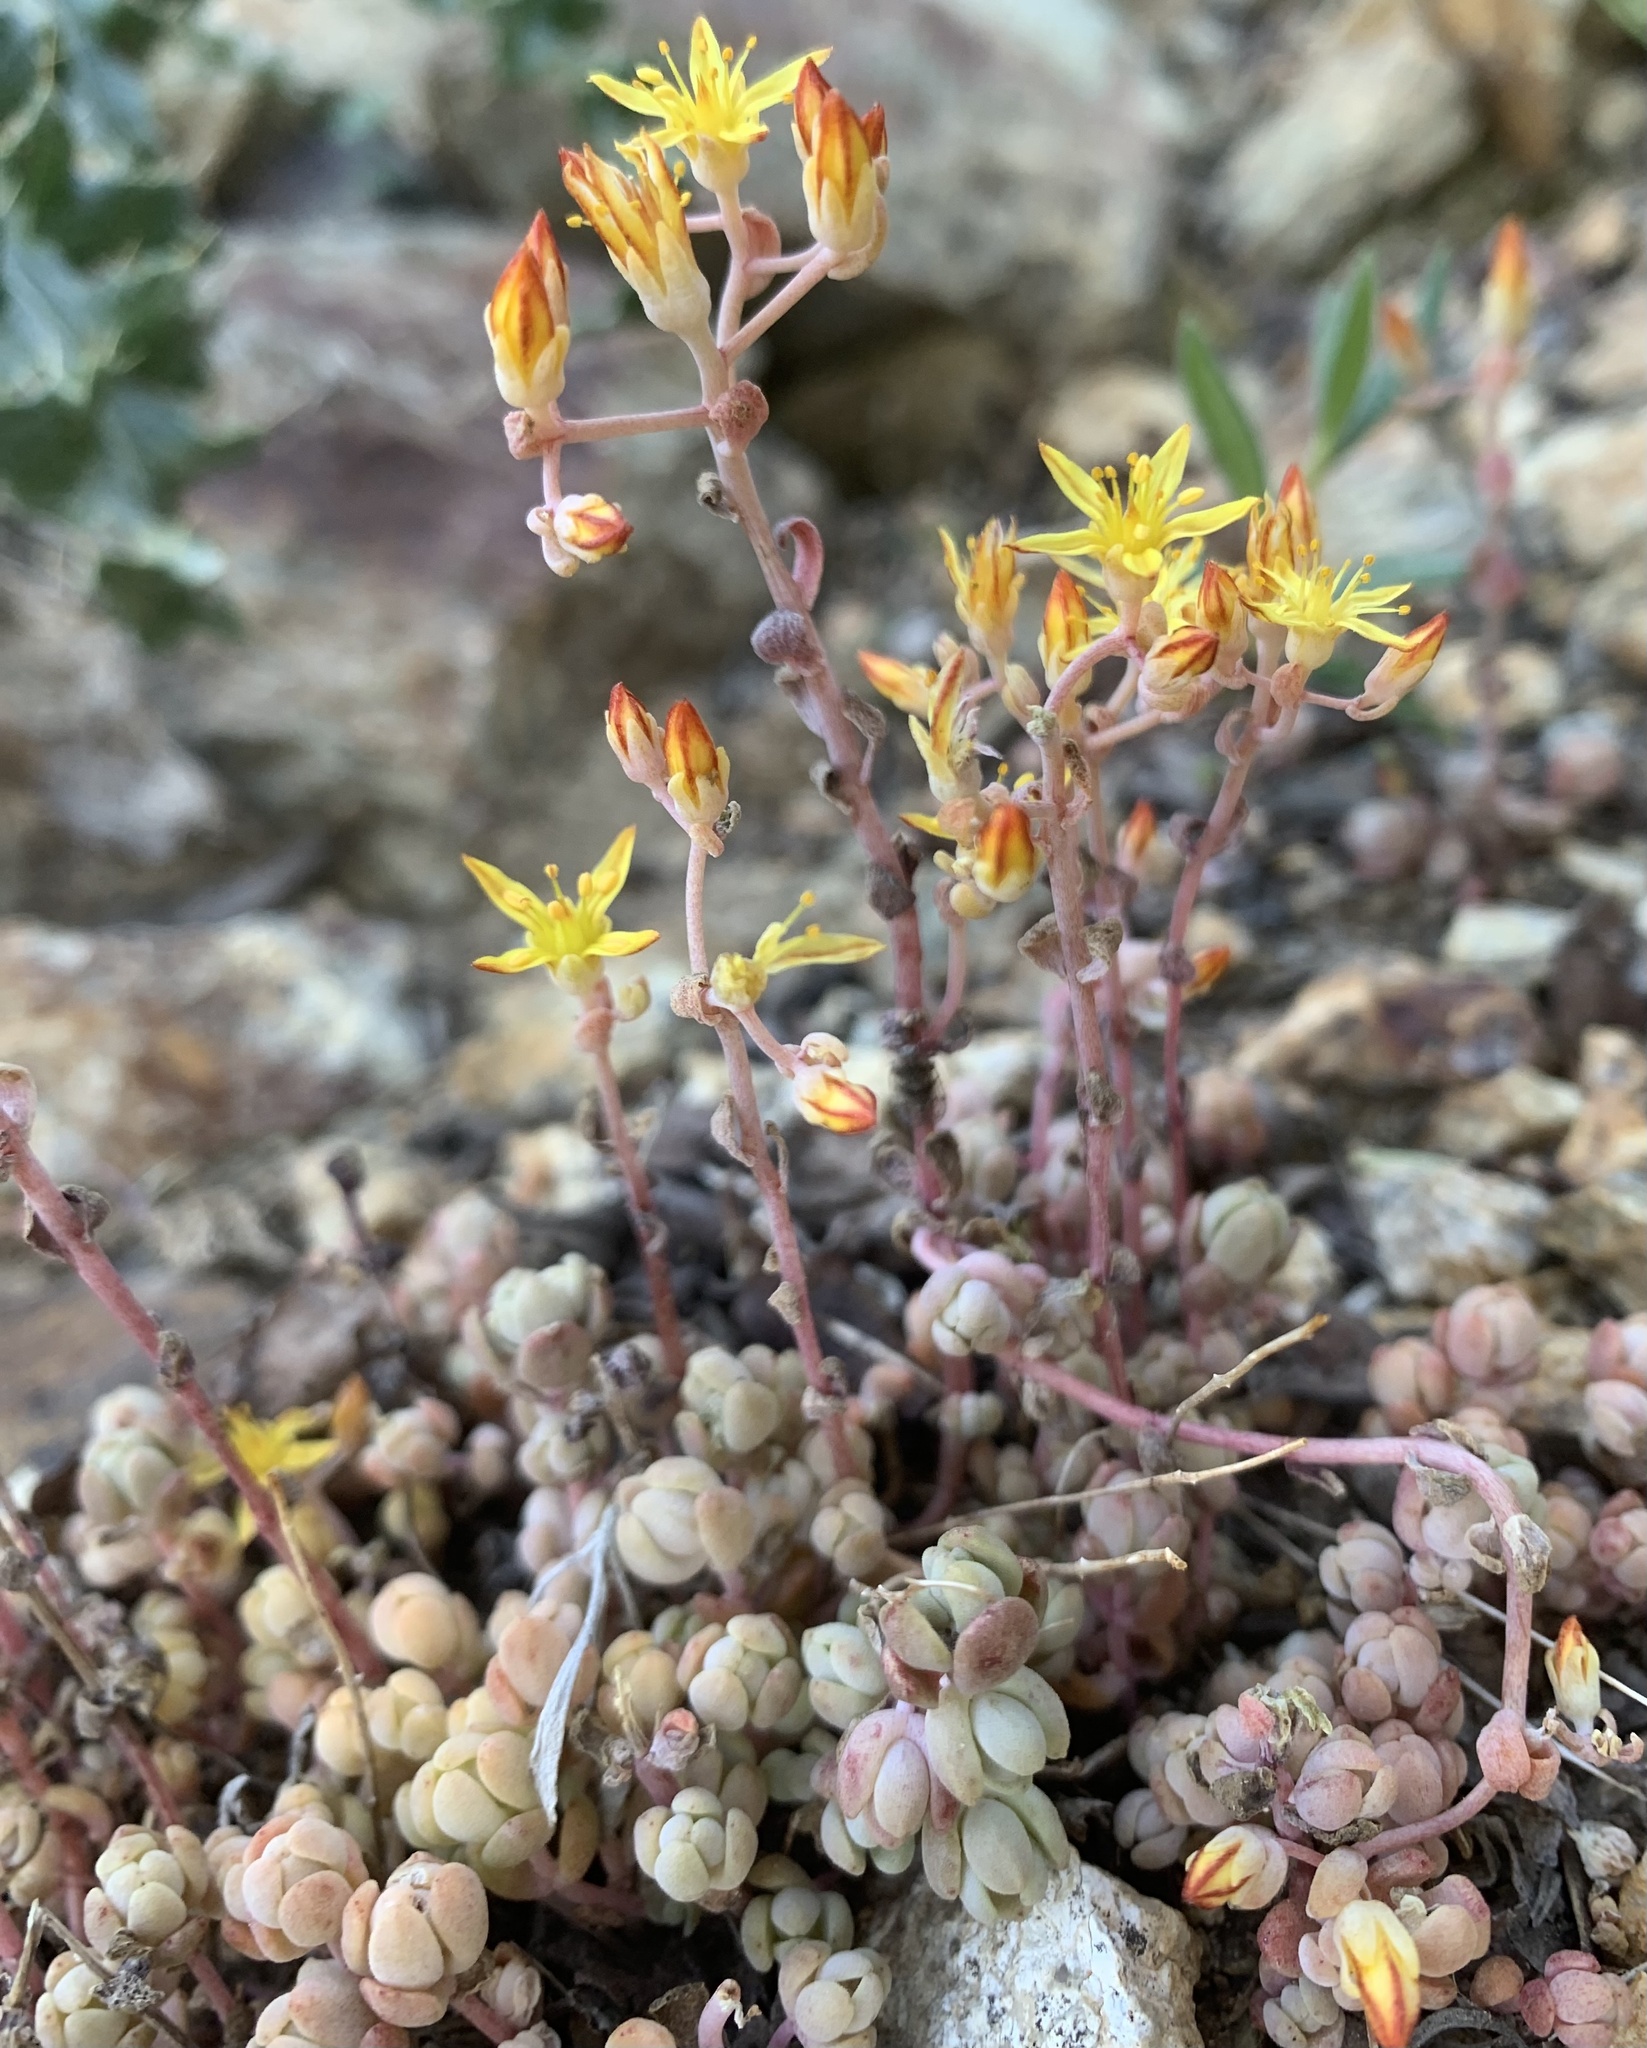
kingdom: Plantae
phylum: Tracheophyta
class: Magnoliopsida
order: Saxifragales
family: Crassulaceae
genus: Sedum
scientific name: Sedum debile
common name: Weak-stem stonecrop
